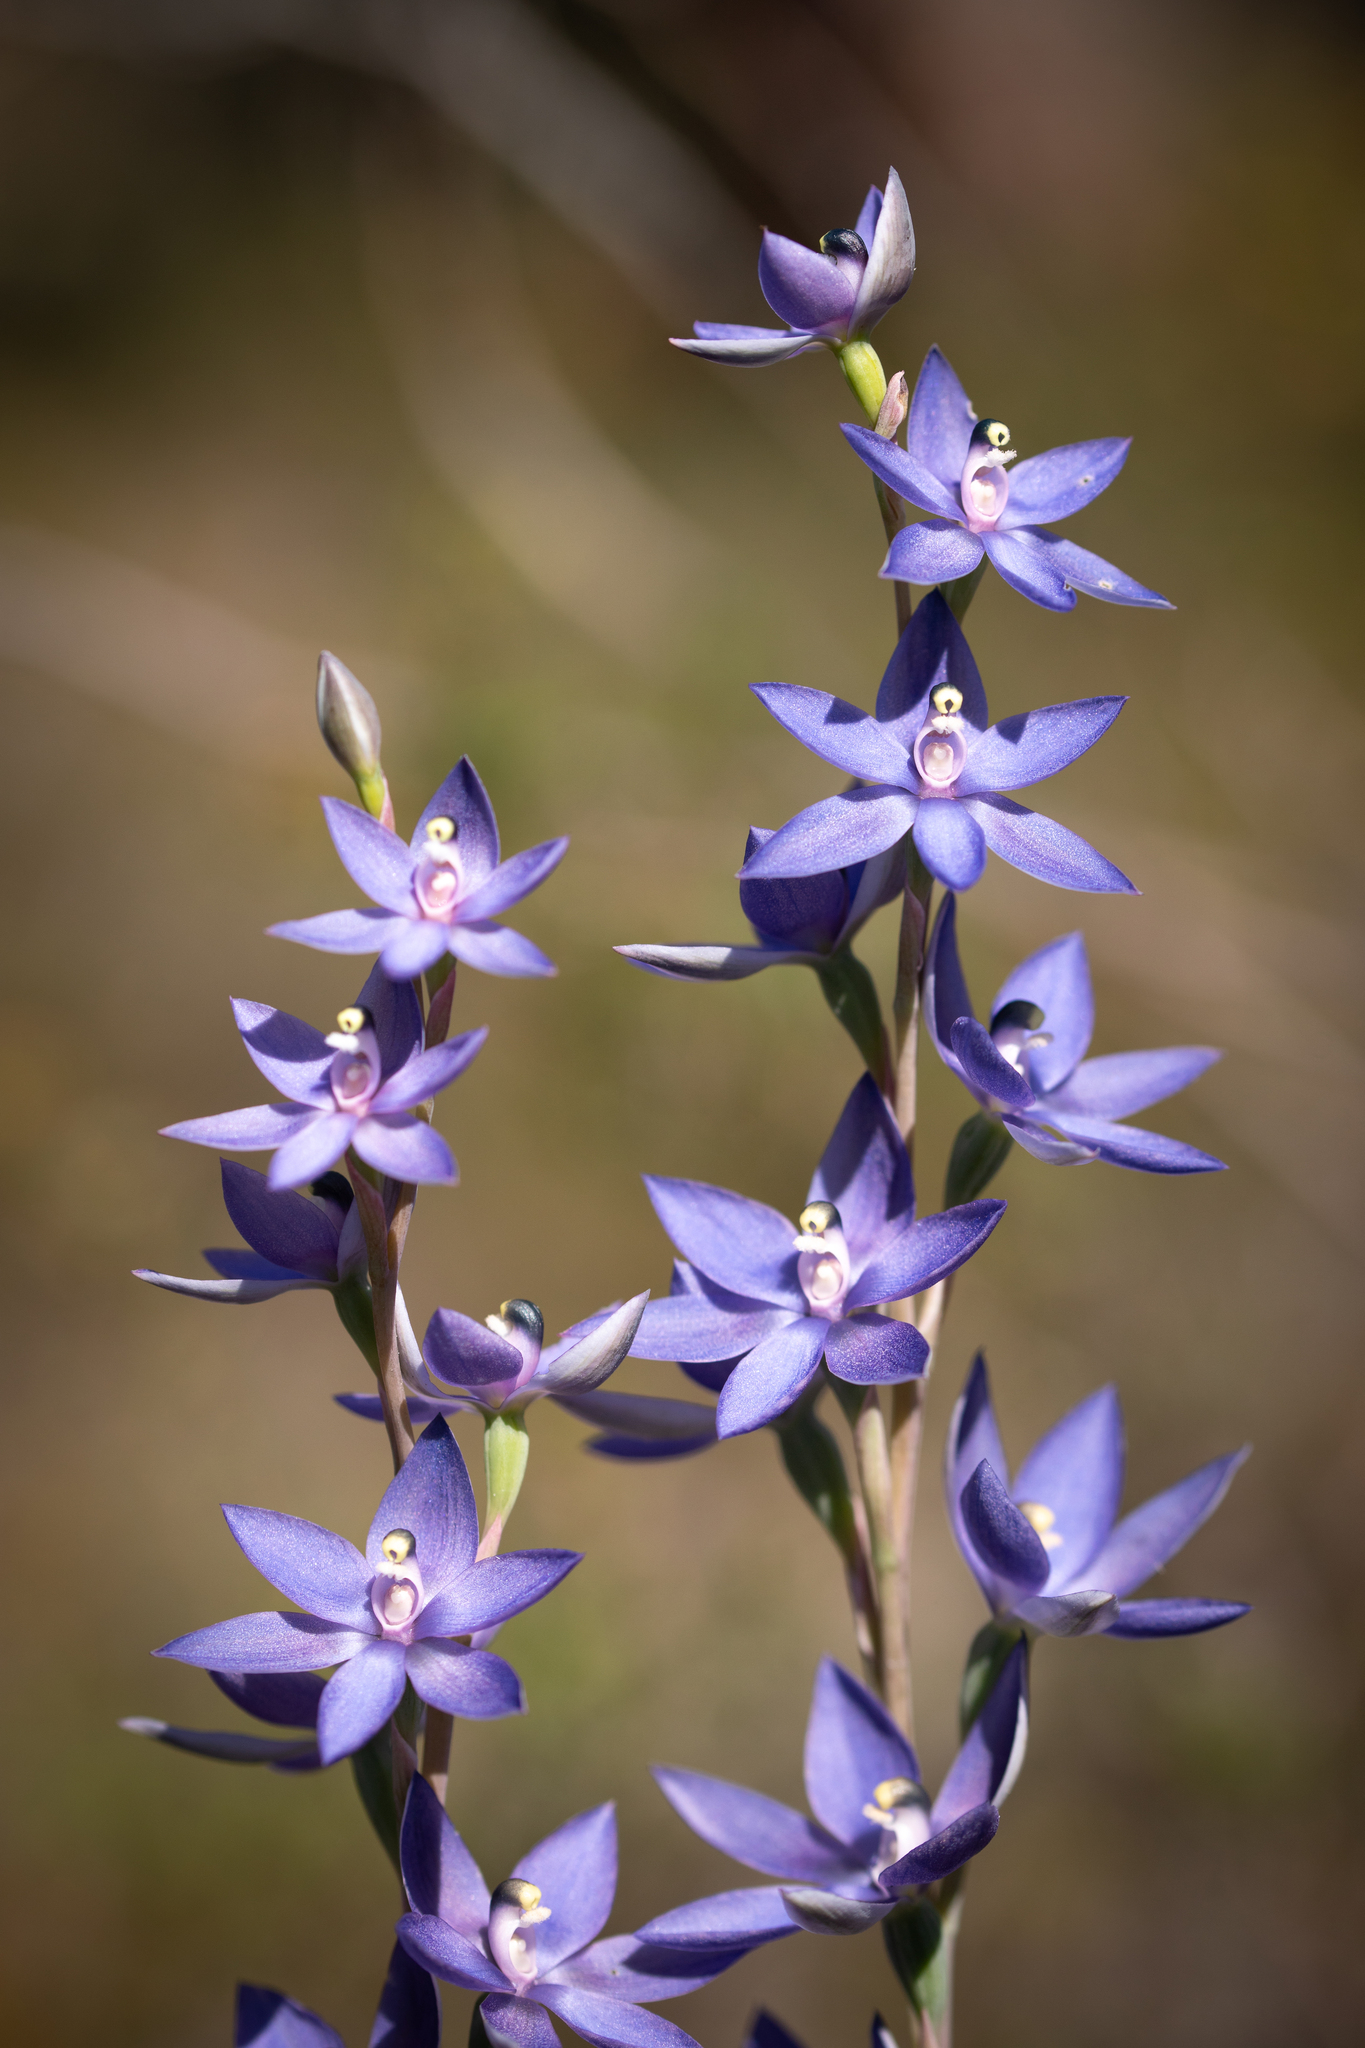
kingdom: Plantae
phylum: Tracheophyta
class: Liliopsida
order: Asparagales
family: Orchidaceae
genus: Thelymitra
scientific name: Thelymitra macrophylla
